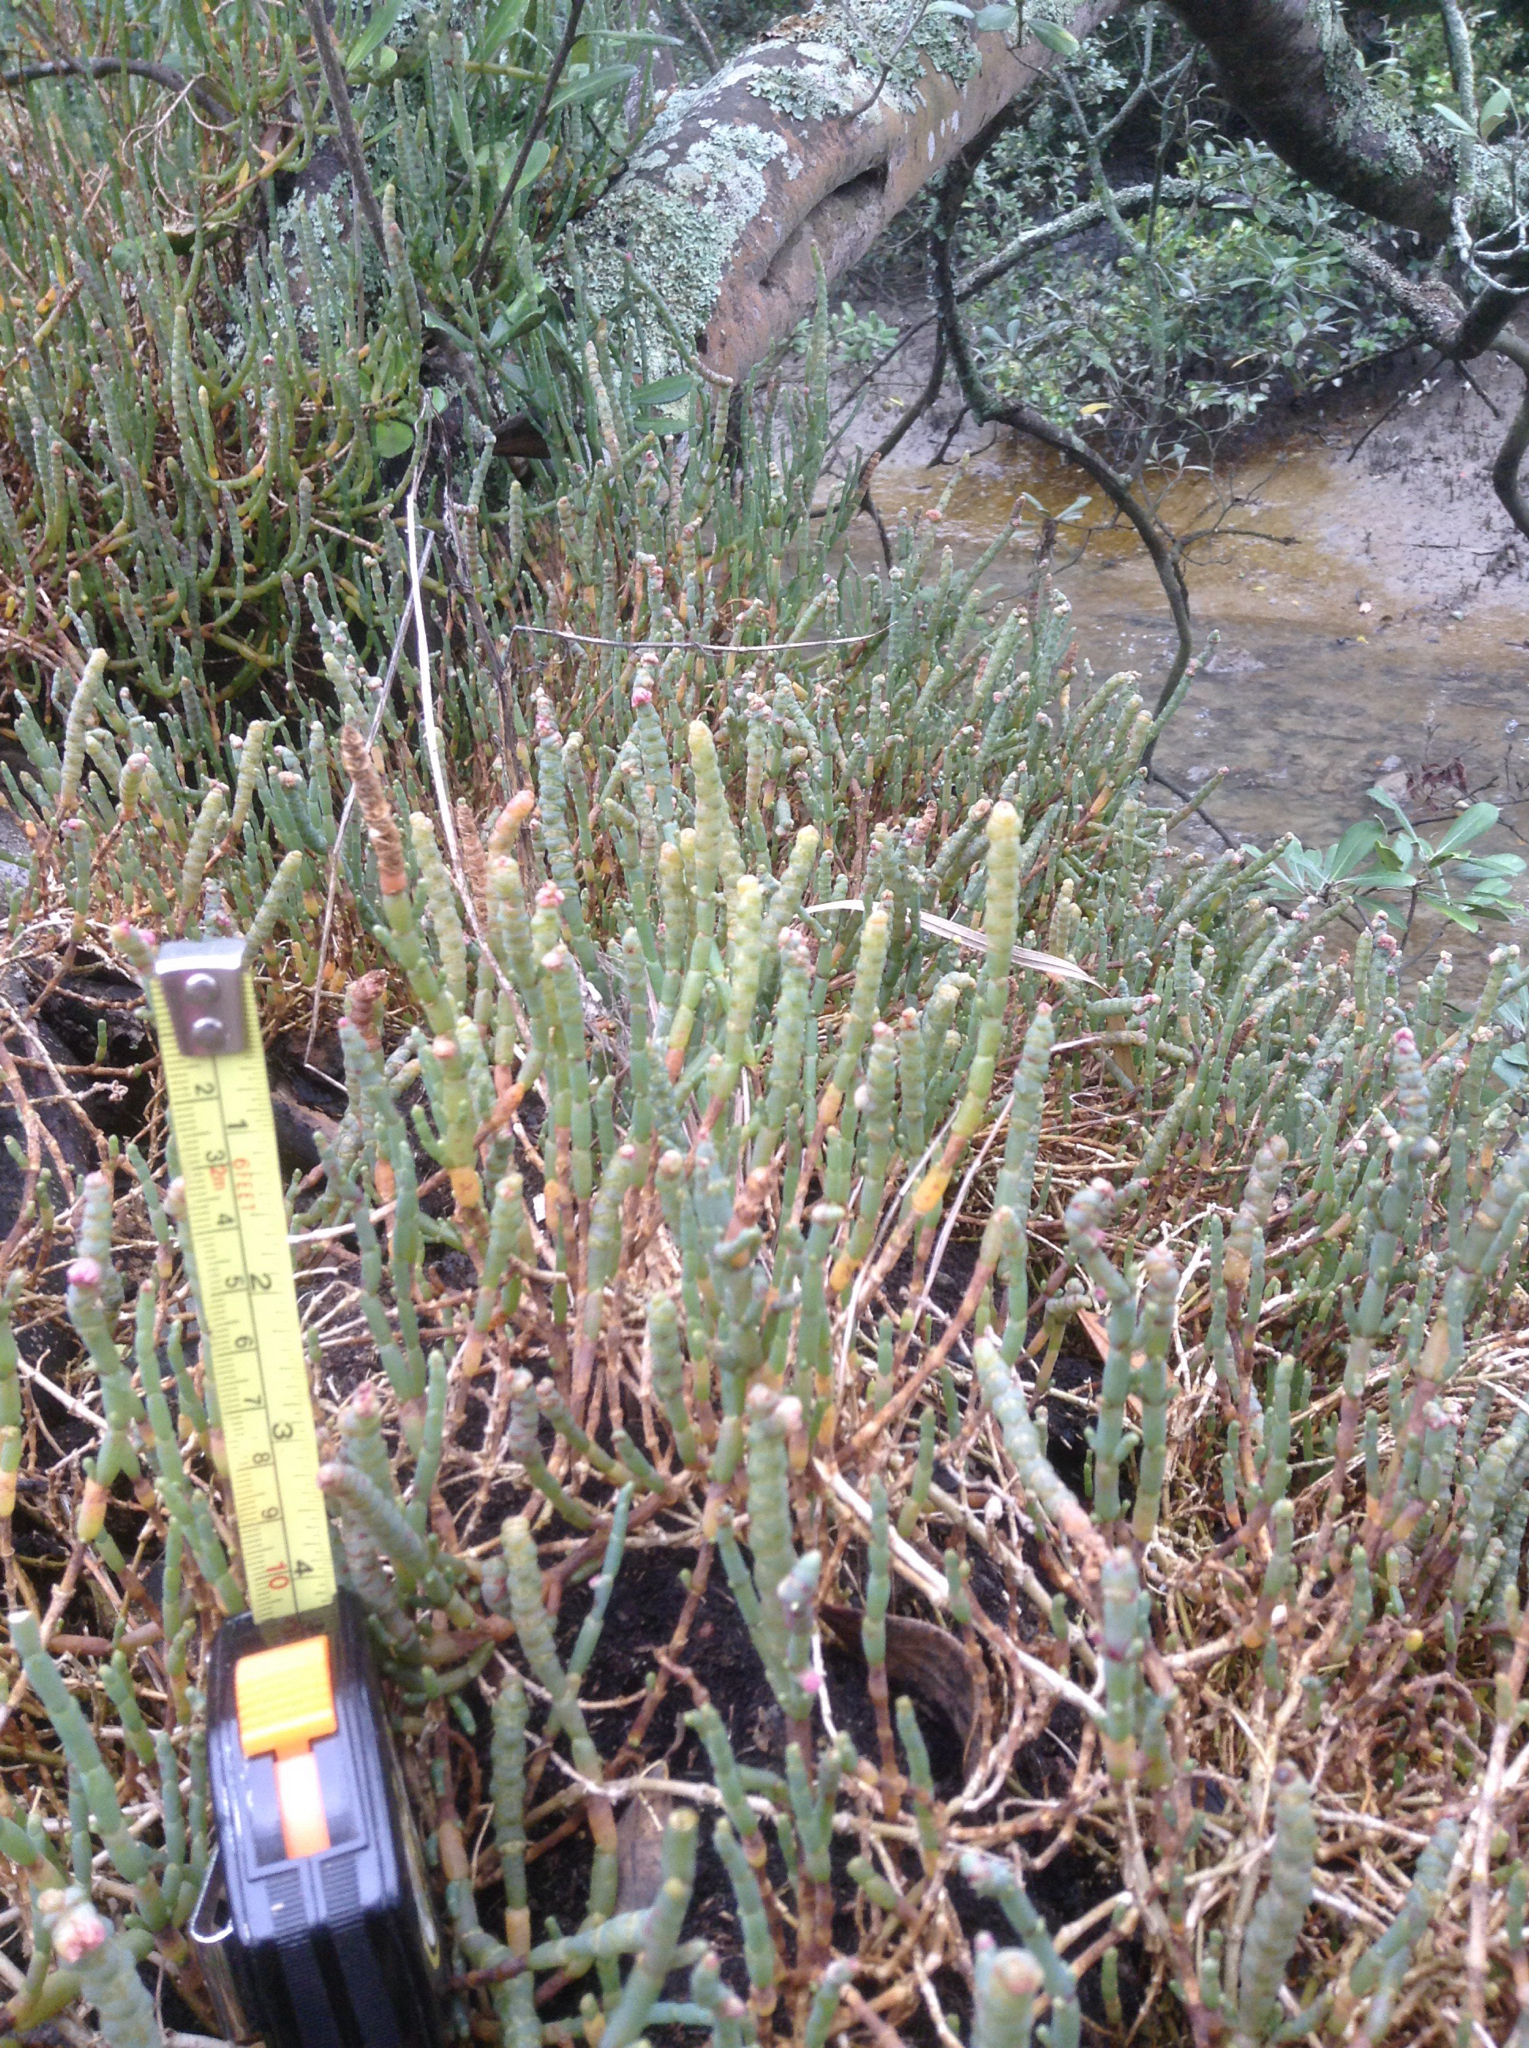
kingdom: Plantae
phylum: Tracheophyta
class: Magnoliopsida
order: Caryophyllales
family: Amaranthaceae
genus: Salicornia
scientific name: Salicornia quinqueflora
